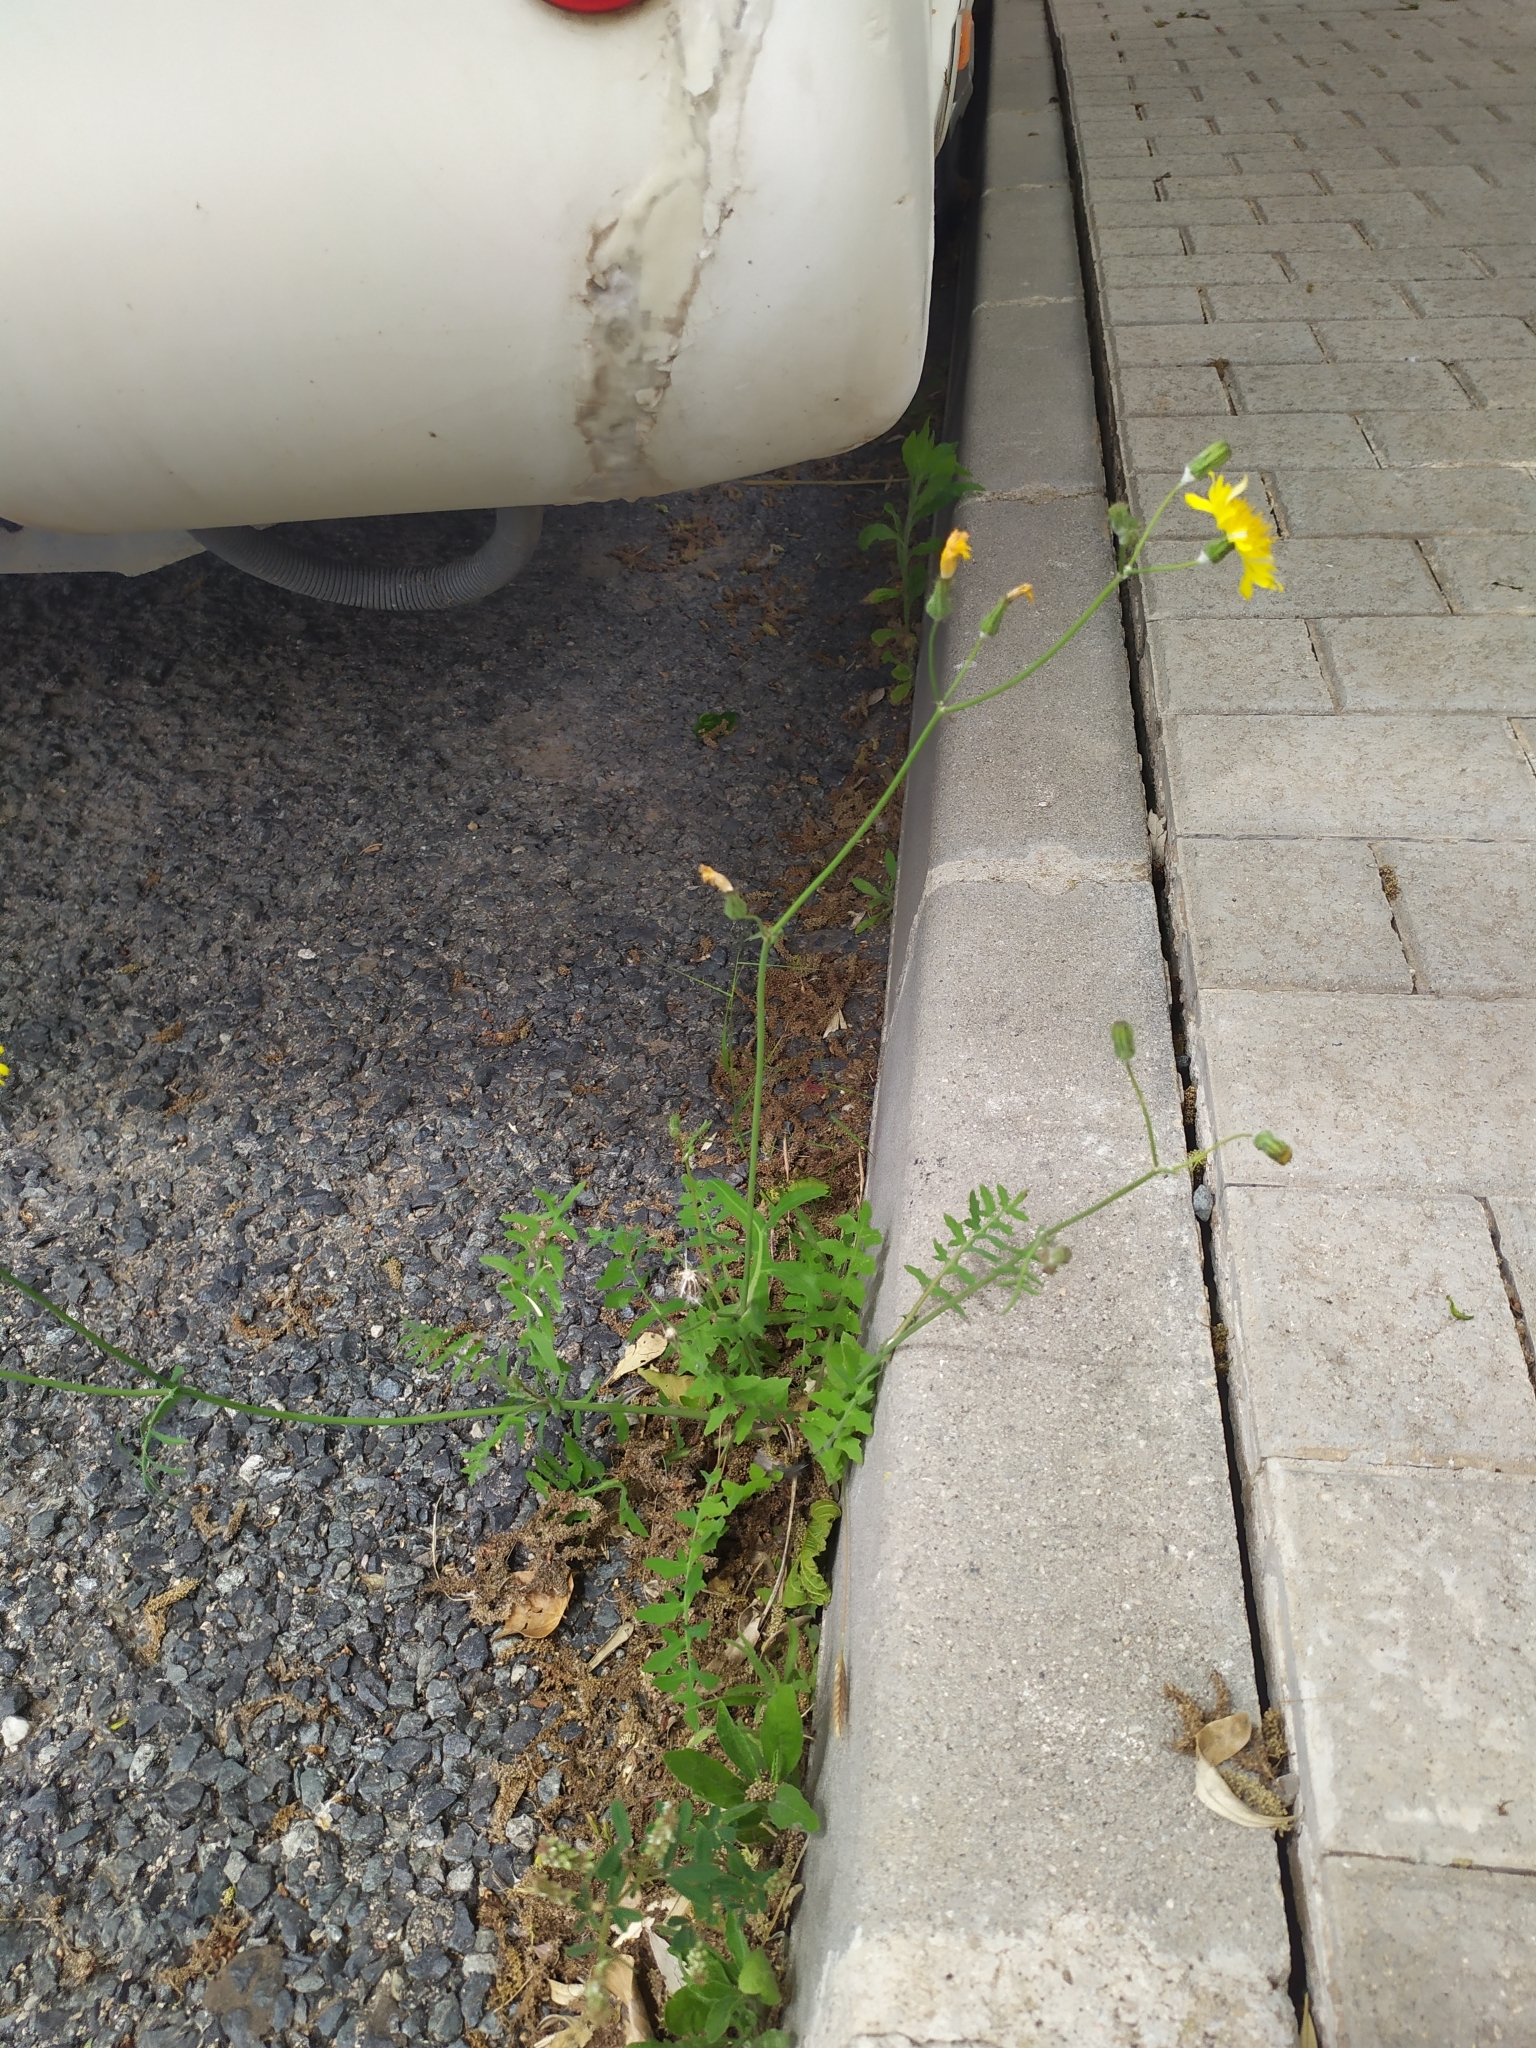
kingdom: Plantae
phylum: Tracheophyta
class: Magnoliopsida
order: Asterales
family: Asteraceae
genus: Sonchus
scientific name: Sonchus tenerrimus
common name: Clammy sowthistle
